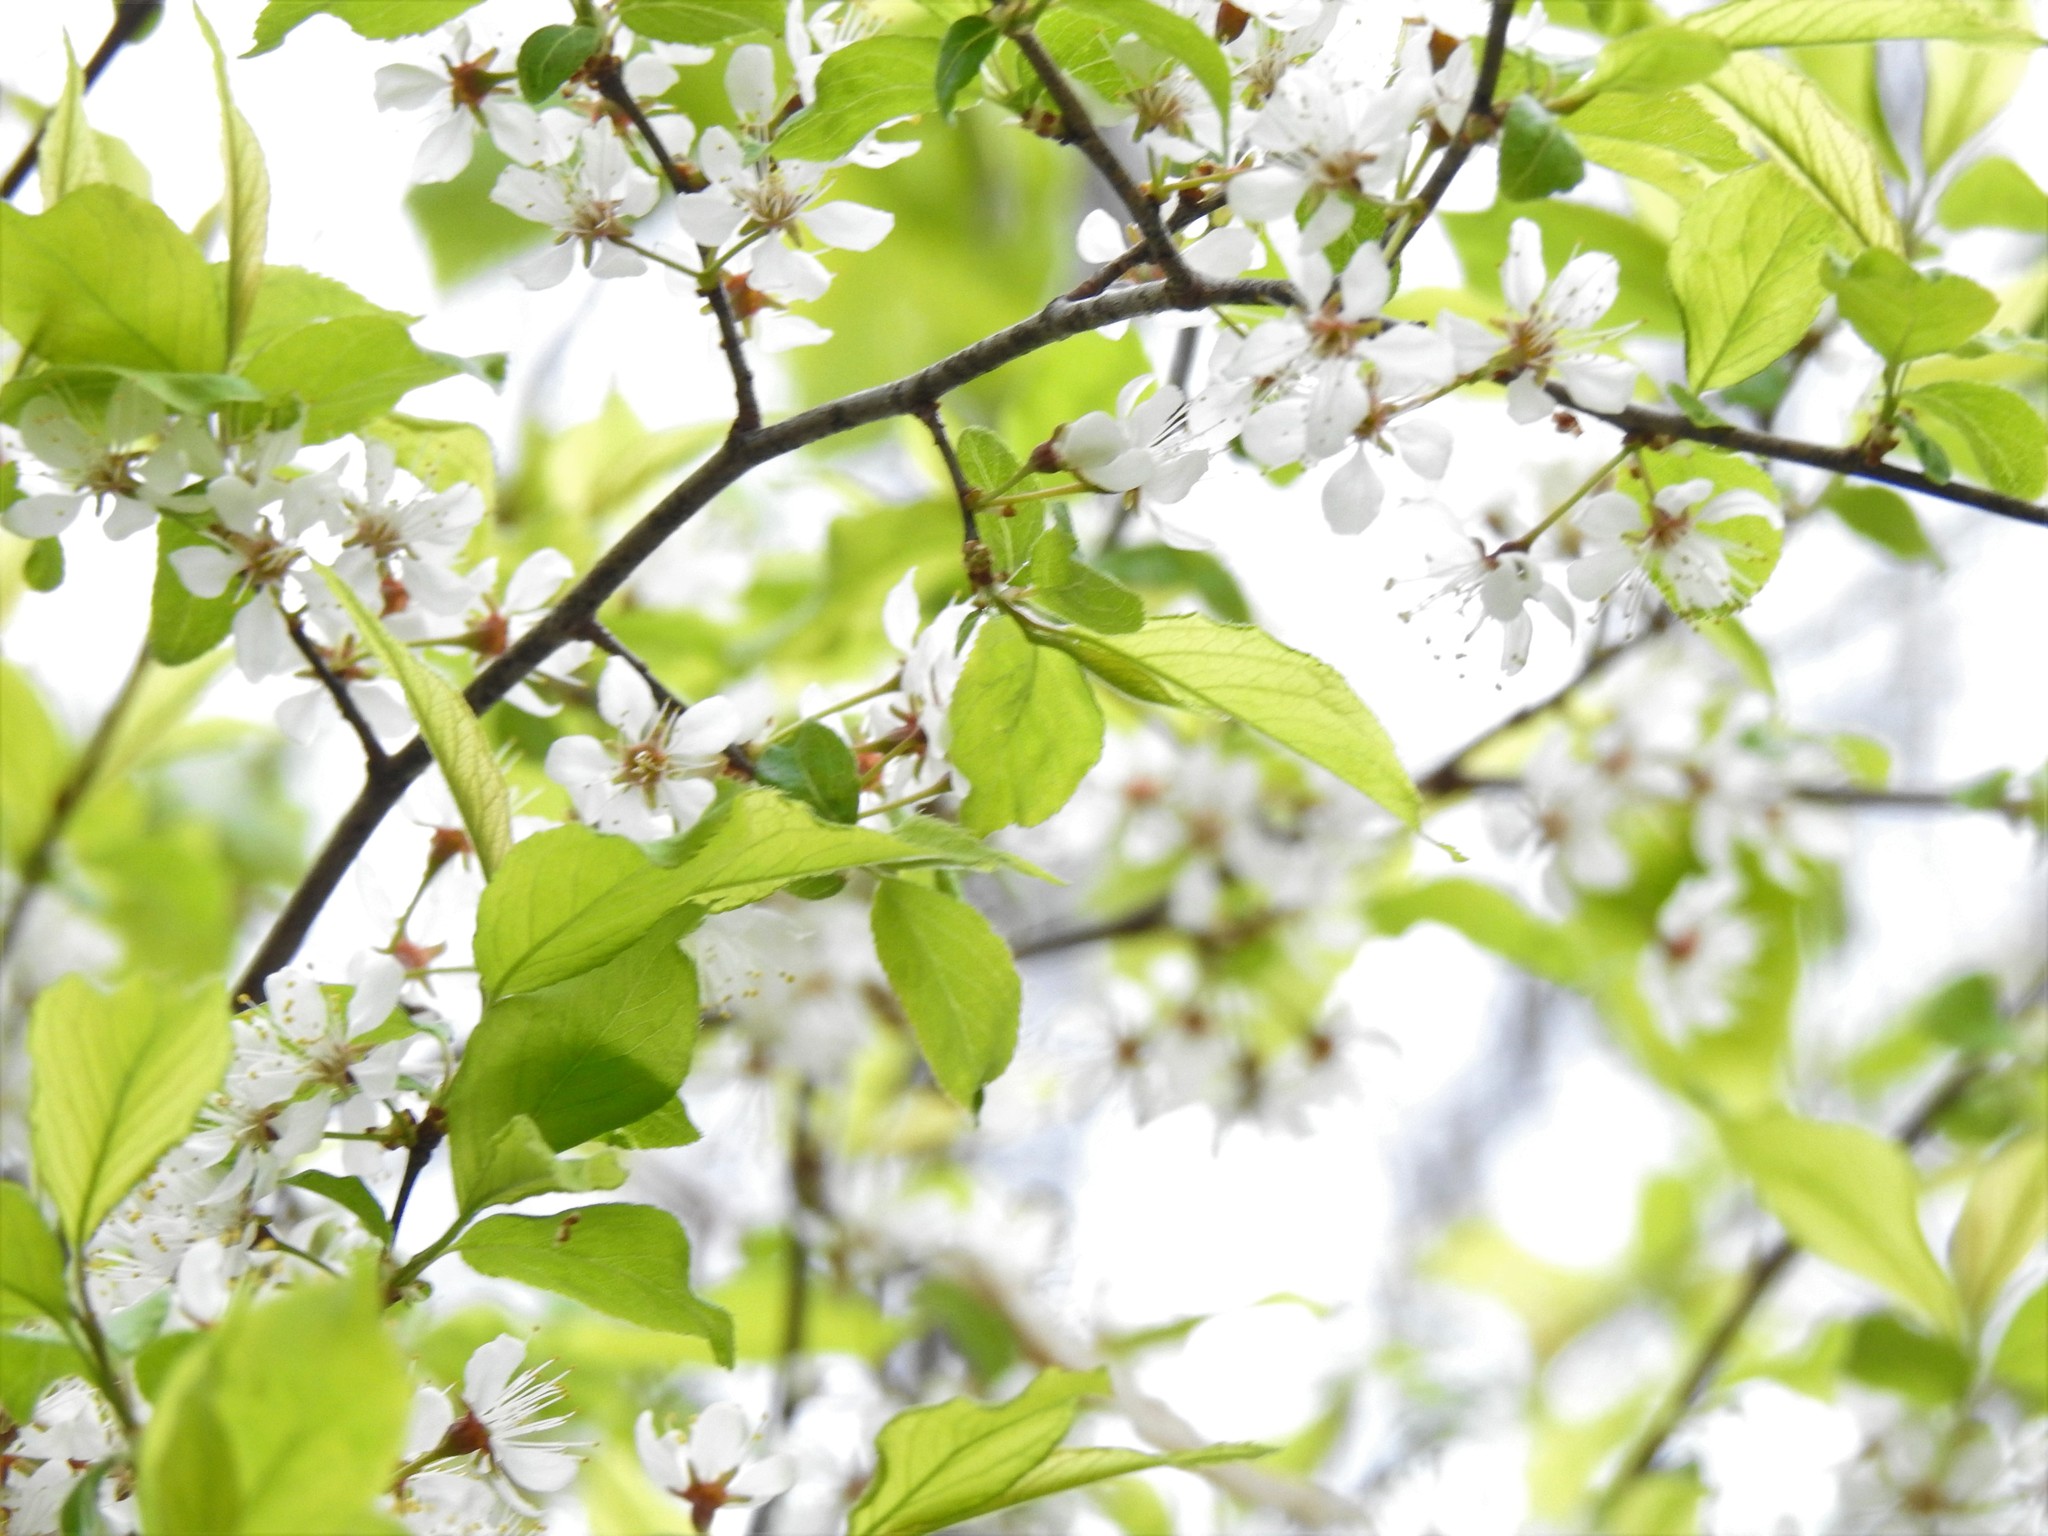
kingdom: Plantae
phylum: Tracheophyta
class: Magnoliopsida
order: Rosales
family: Rosaceae
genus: Prunus
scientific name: Prunus nigra
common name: Black plum
